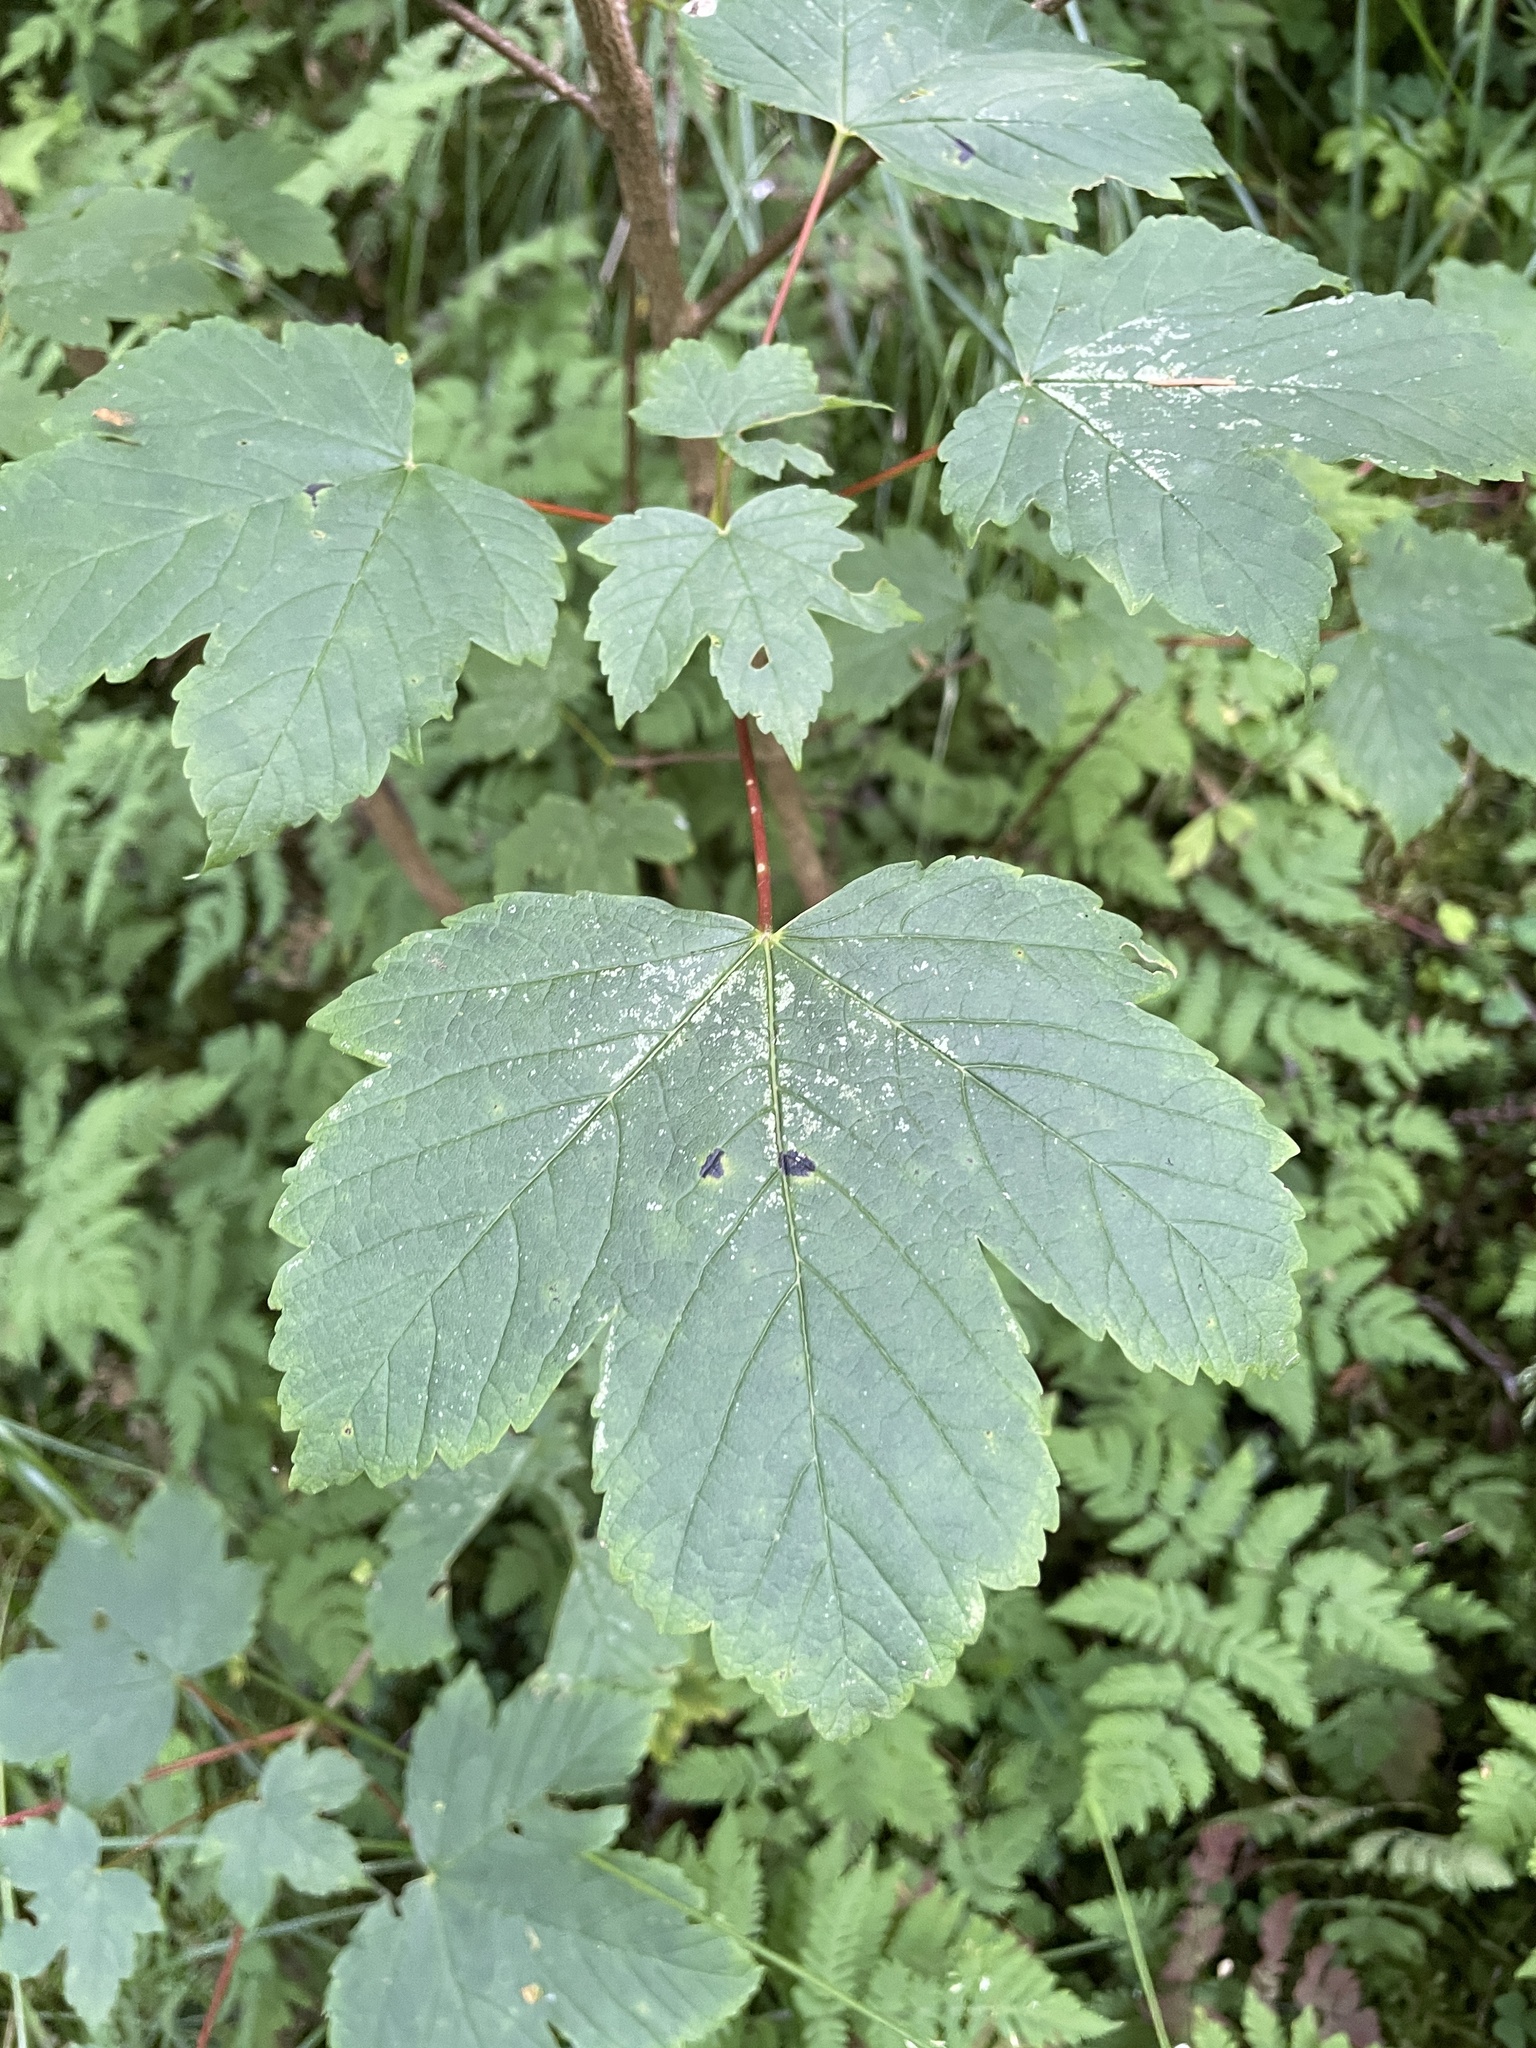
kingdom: Plantae
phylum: Tracheophyta
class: Magnoliopsida
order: Sapindales
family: Sapindaceae
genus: Acer
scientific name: Acer pseudoplatanus
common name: Sycamore
